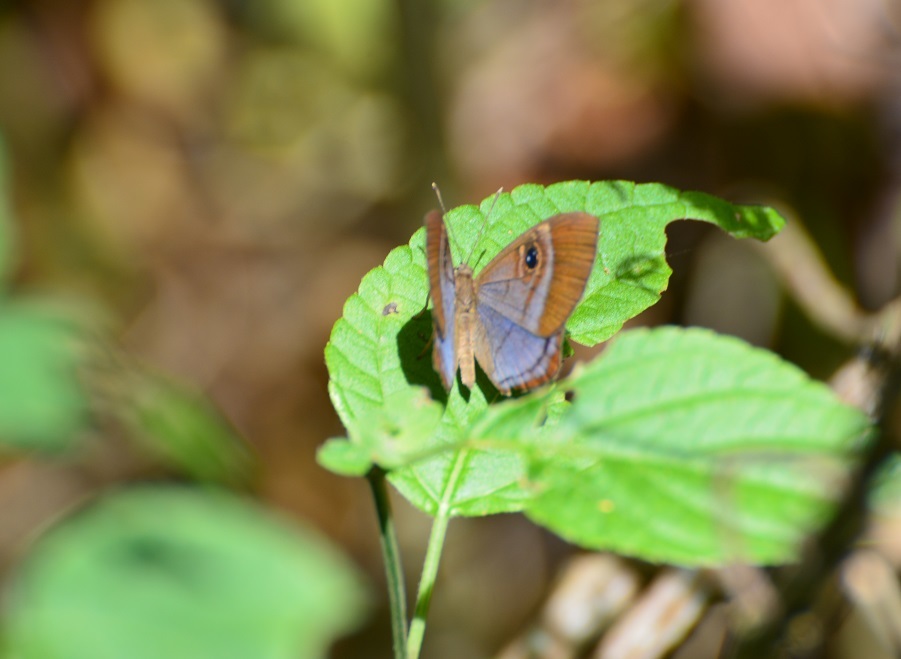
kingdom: Animalia
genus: Mesosemia
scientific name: Mesosemia lamachus
